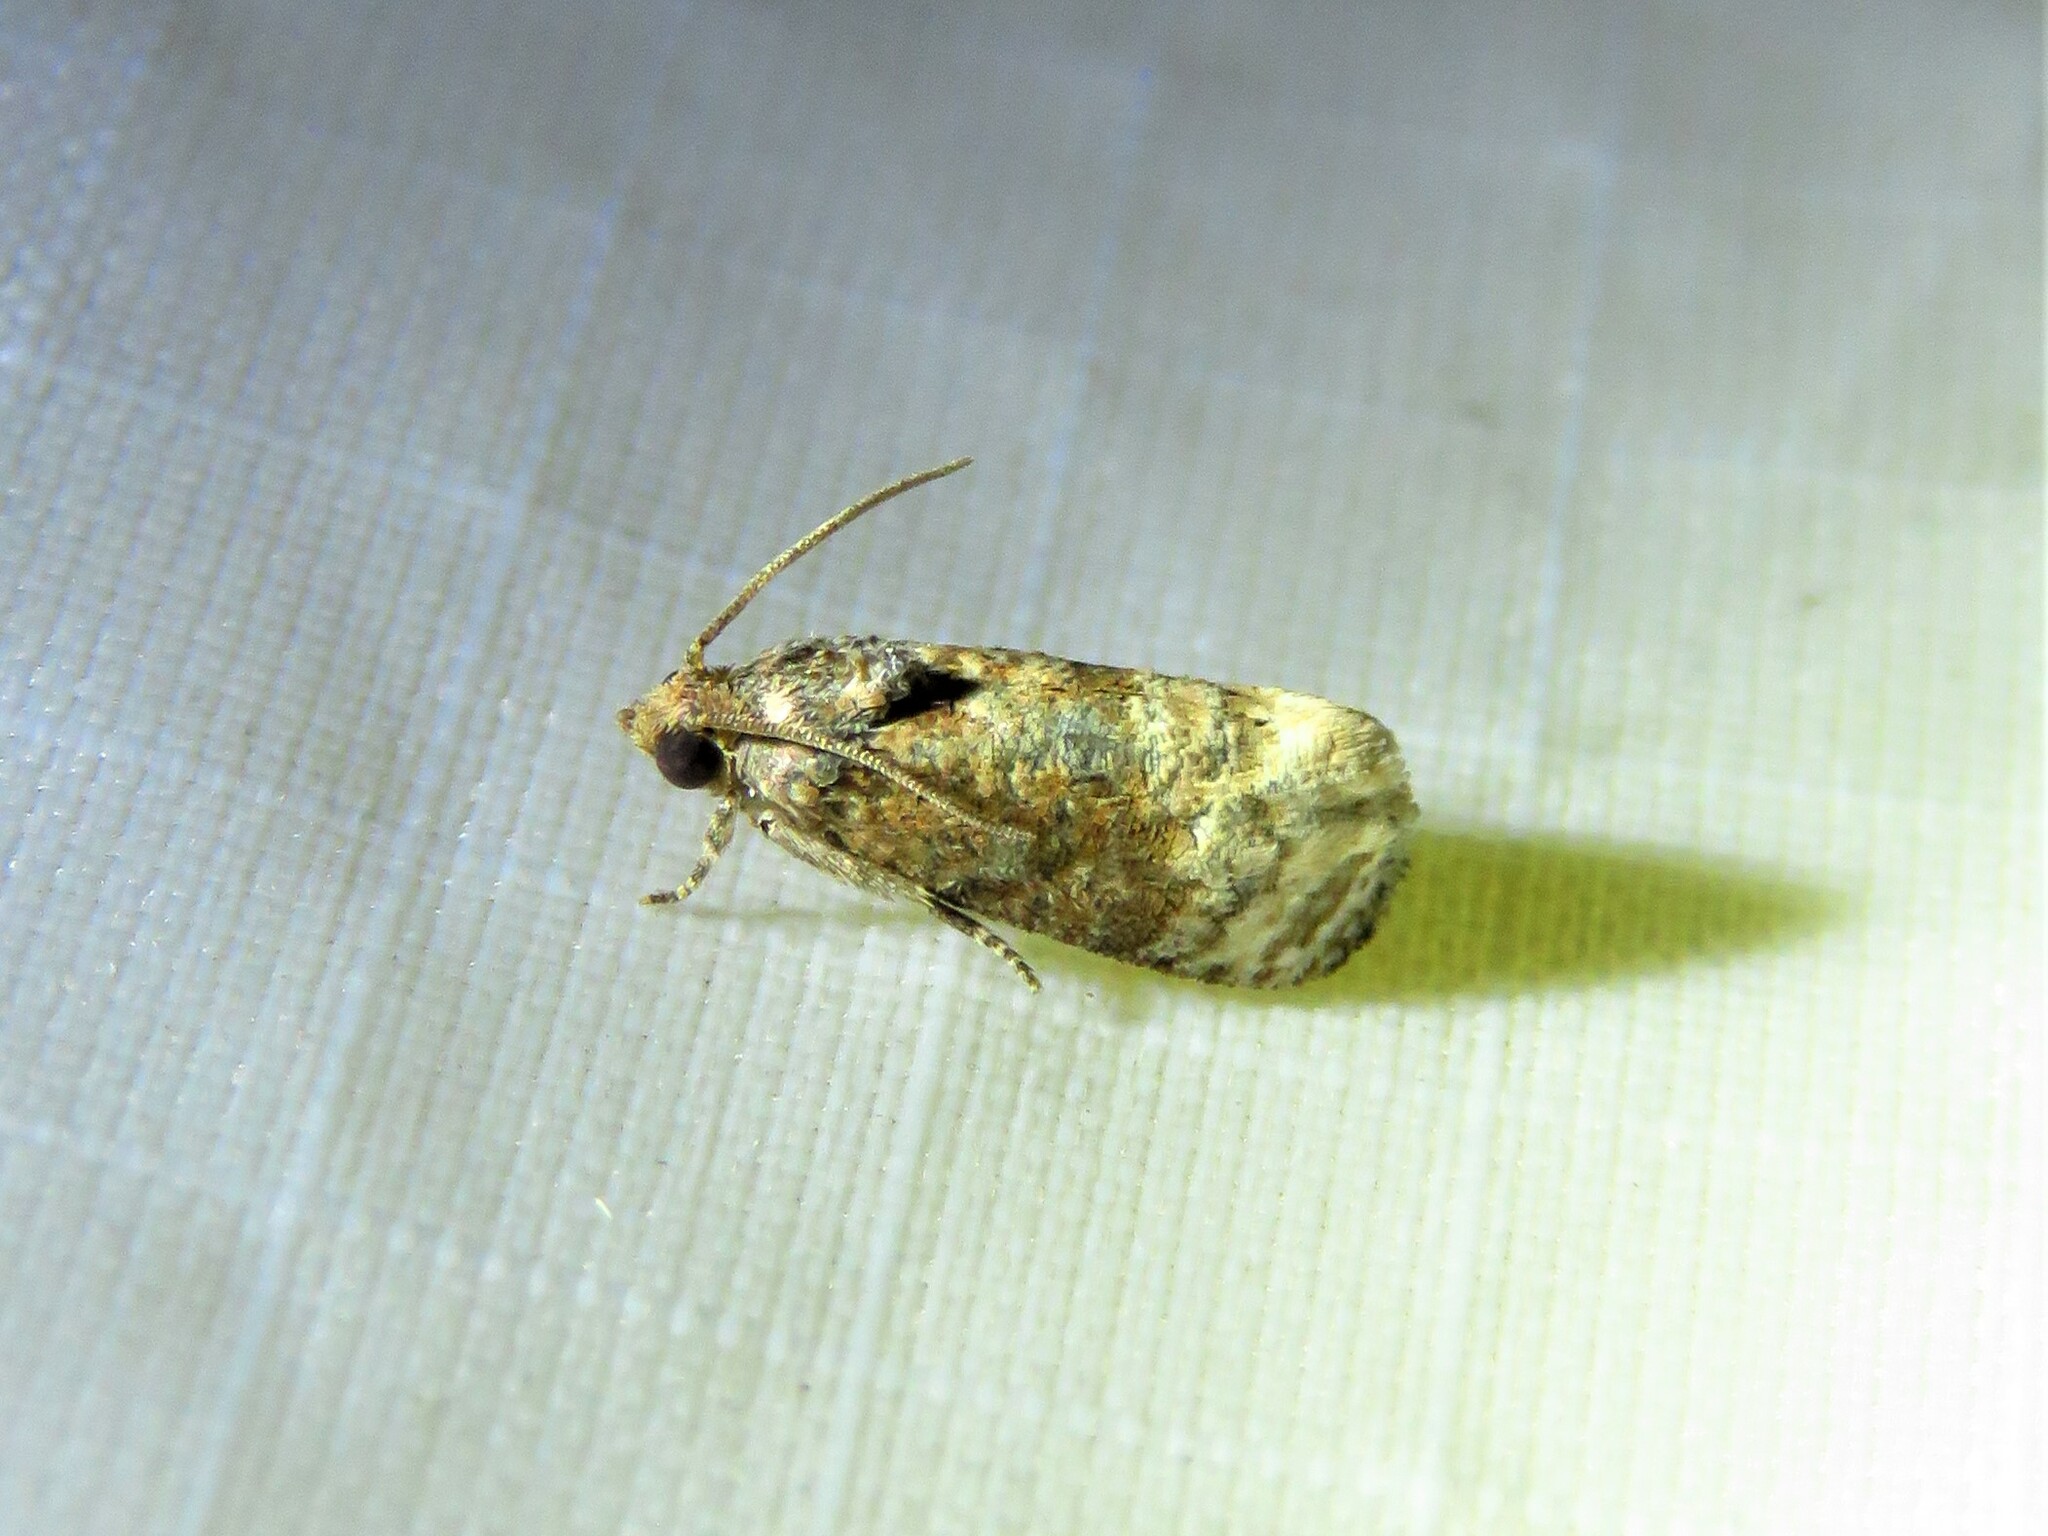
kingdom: Animalia
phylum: Arthropoda
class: Insecta
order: Lepidoptera
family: Tortricidae
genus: Ecdytolopha
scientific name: Ecdytolopha mana
